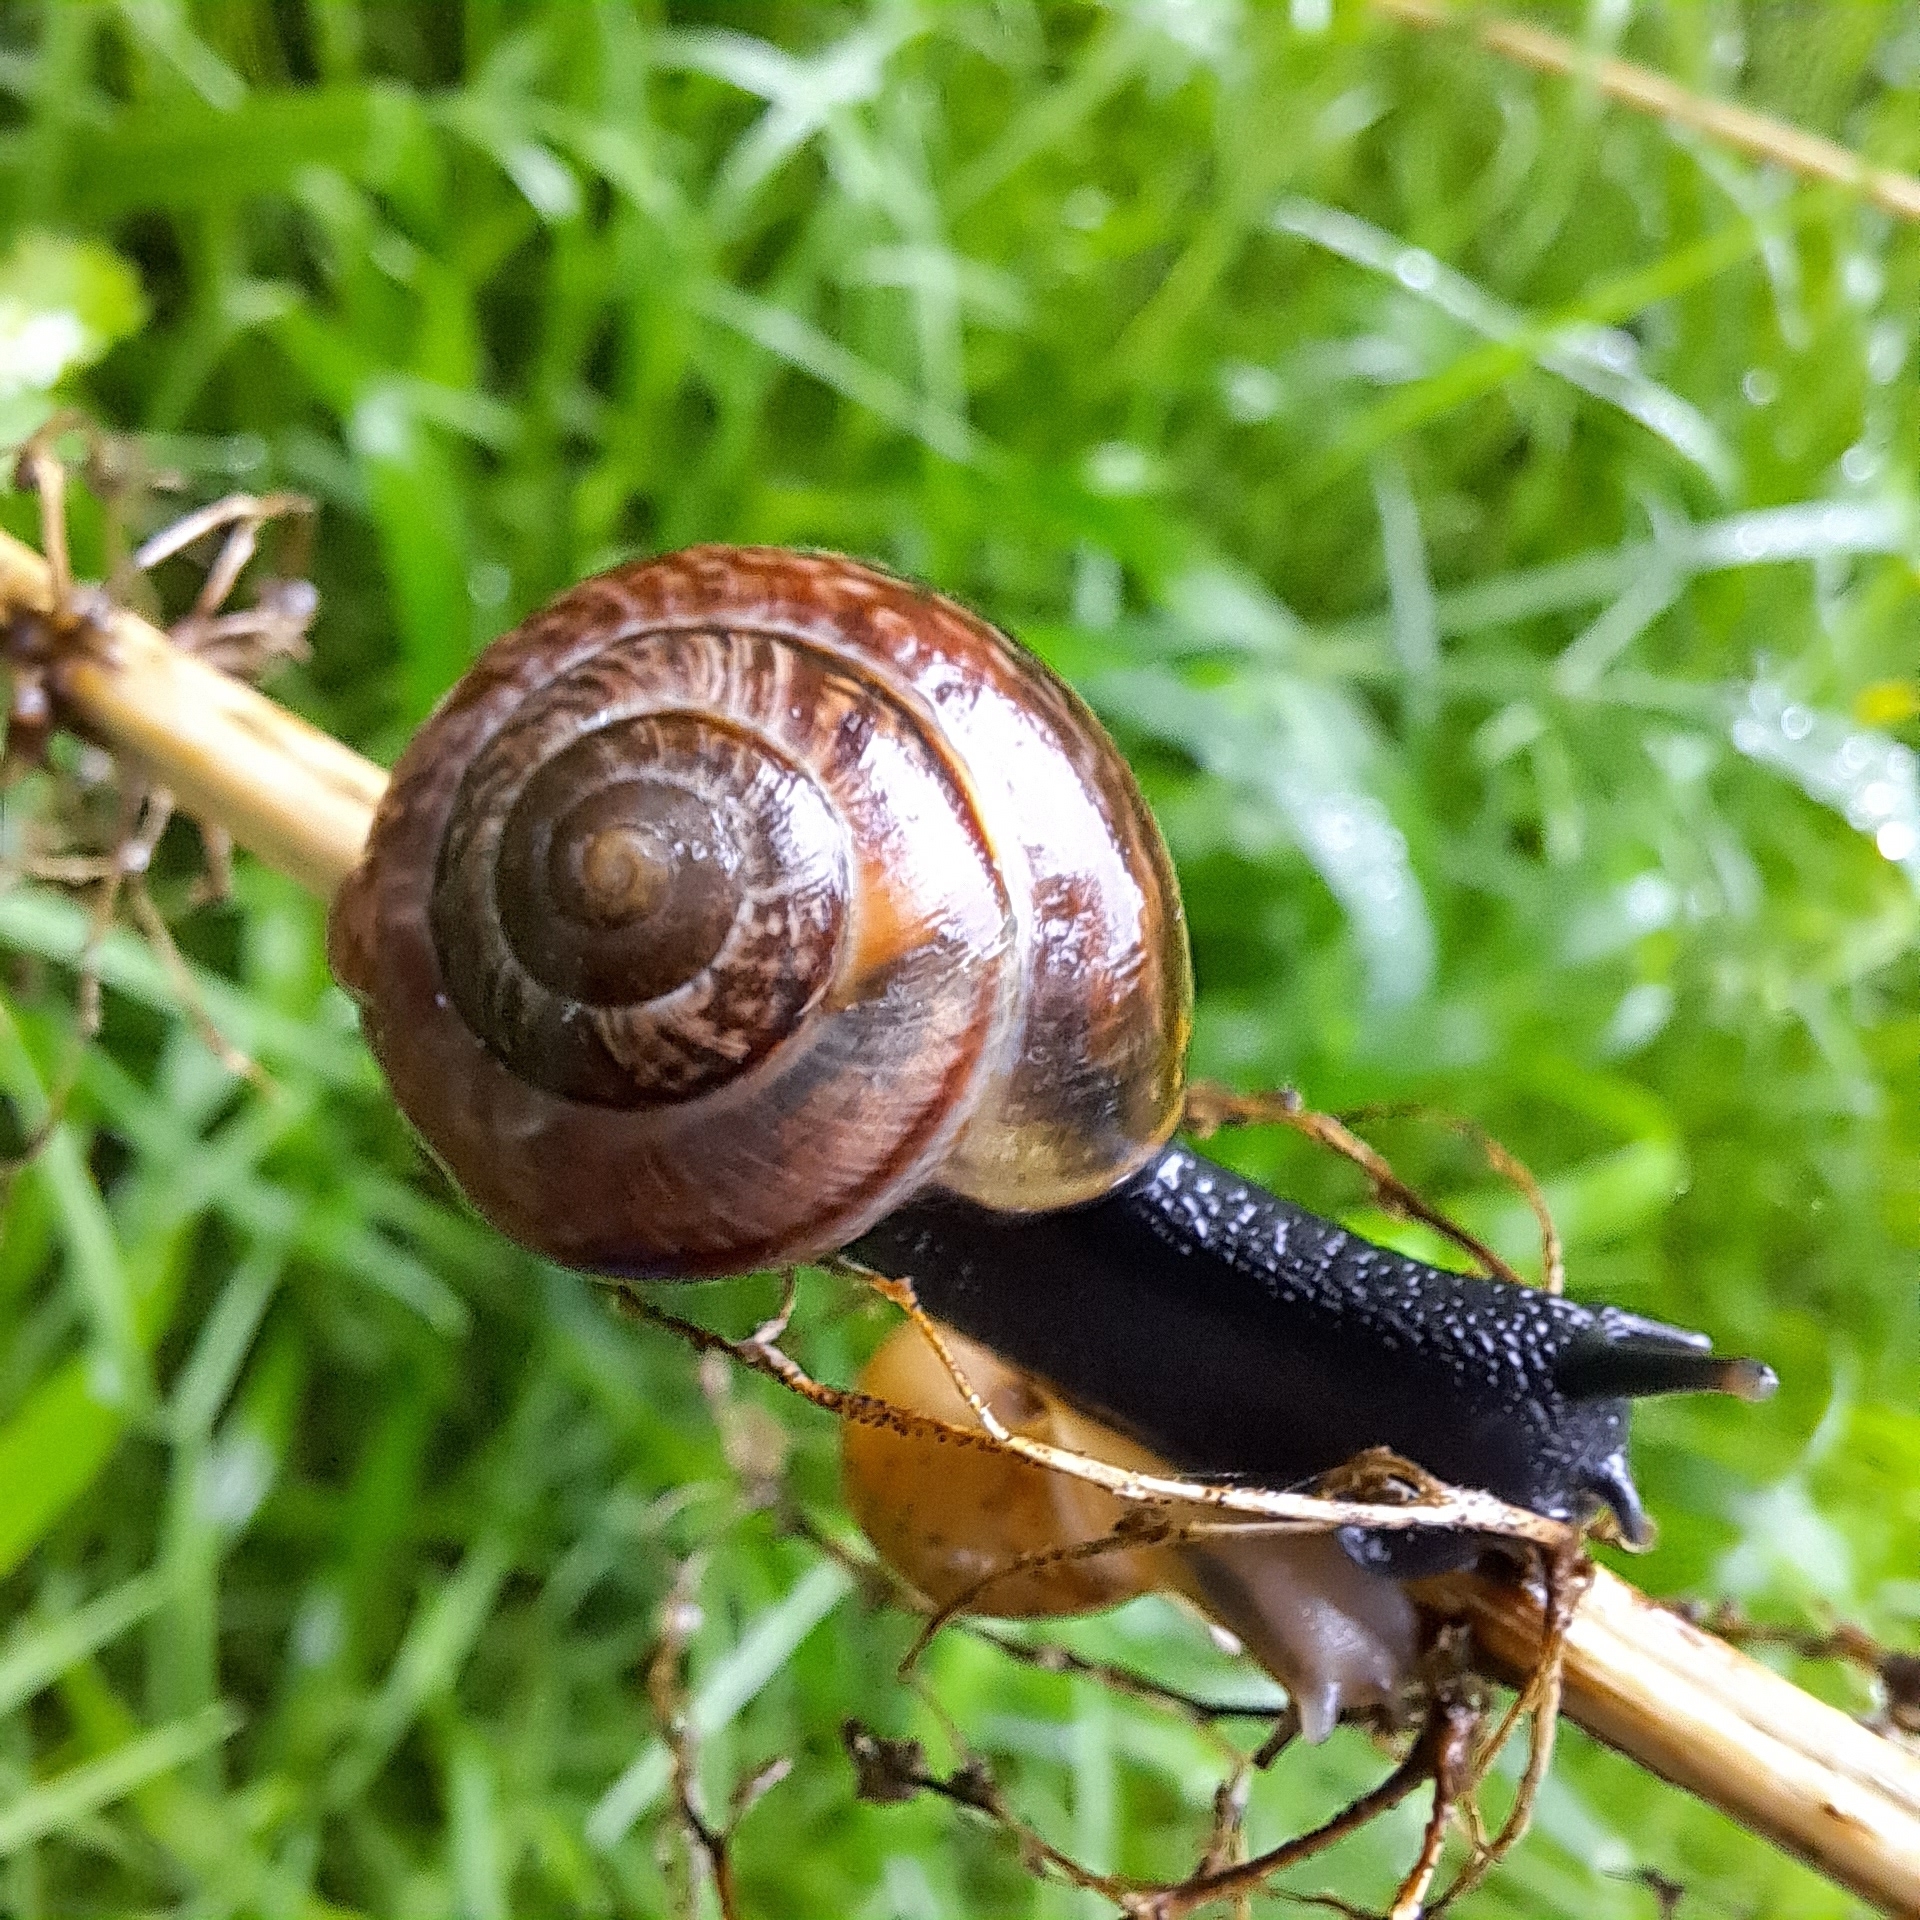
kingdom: Animalia
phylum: Mollusca
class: Gastropoda
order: Stylommatophora
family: Helicidae
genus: Arianta
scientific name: Arianta arbustorum
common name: Copse snail
